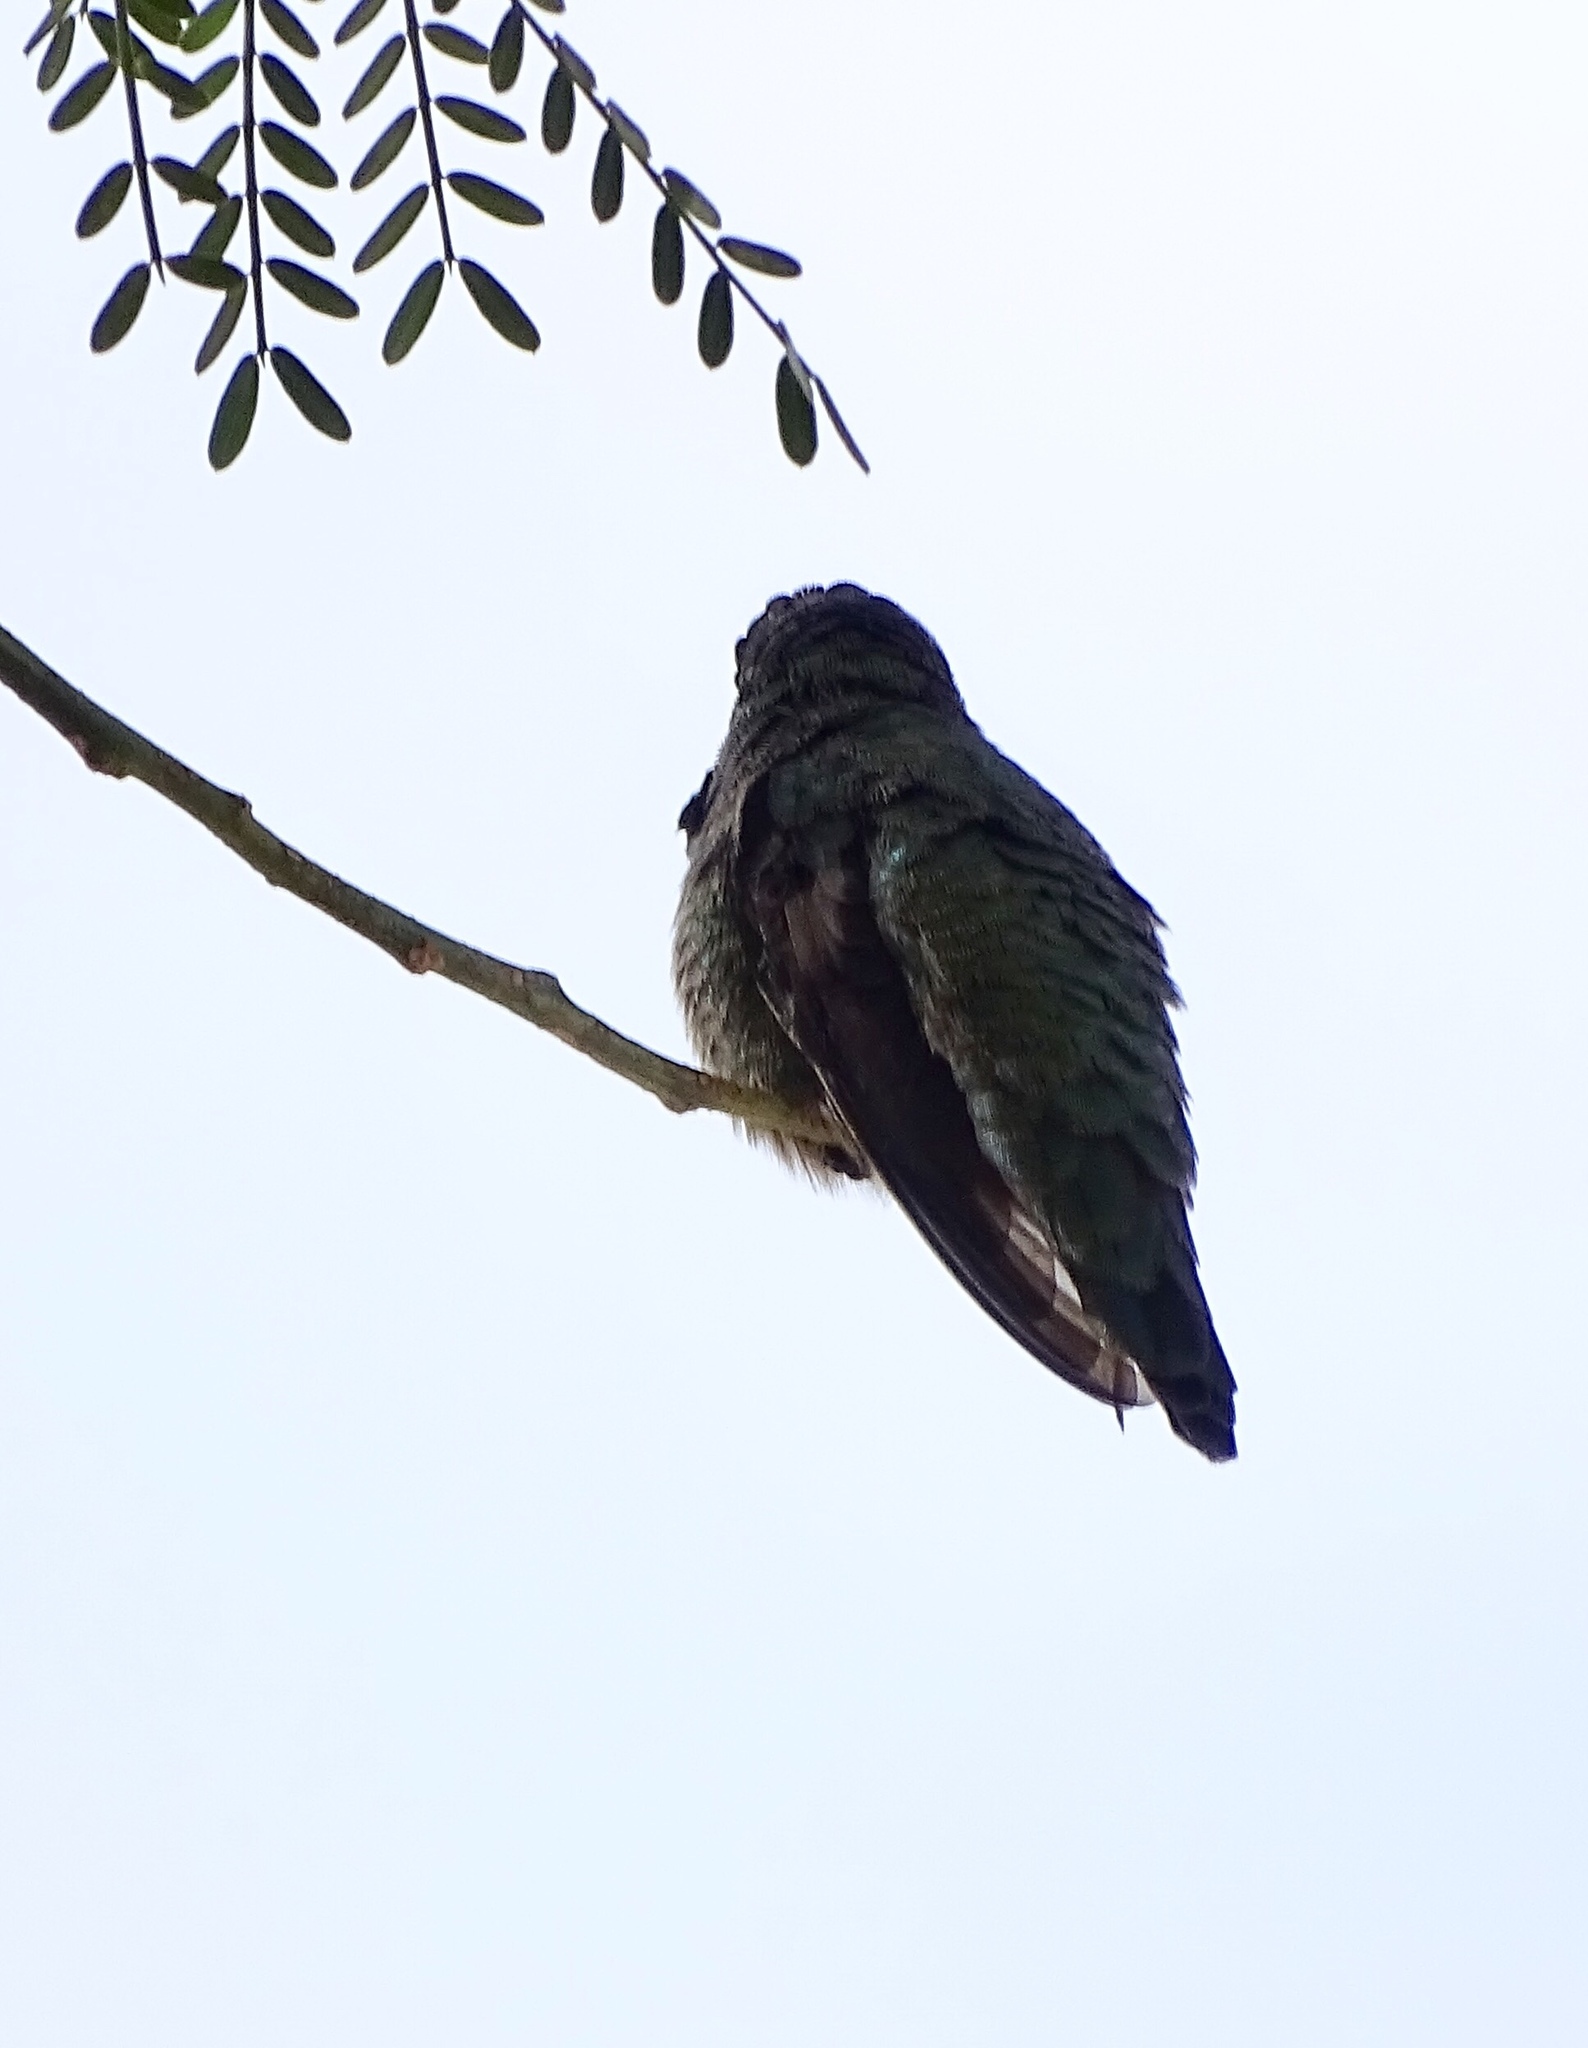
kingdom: Animalia
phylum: Chordata
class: Aves
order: Apodiformes
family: Trochilidae
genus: Calypte
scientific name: Calypte anna
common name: Anna's hummingbird
